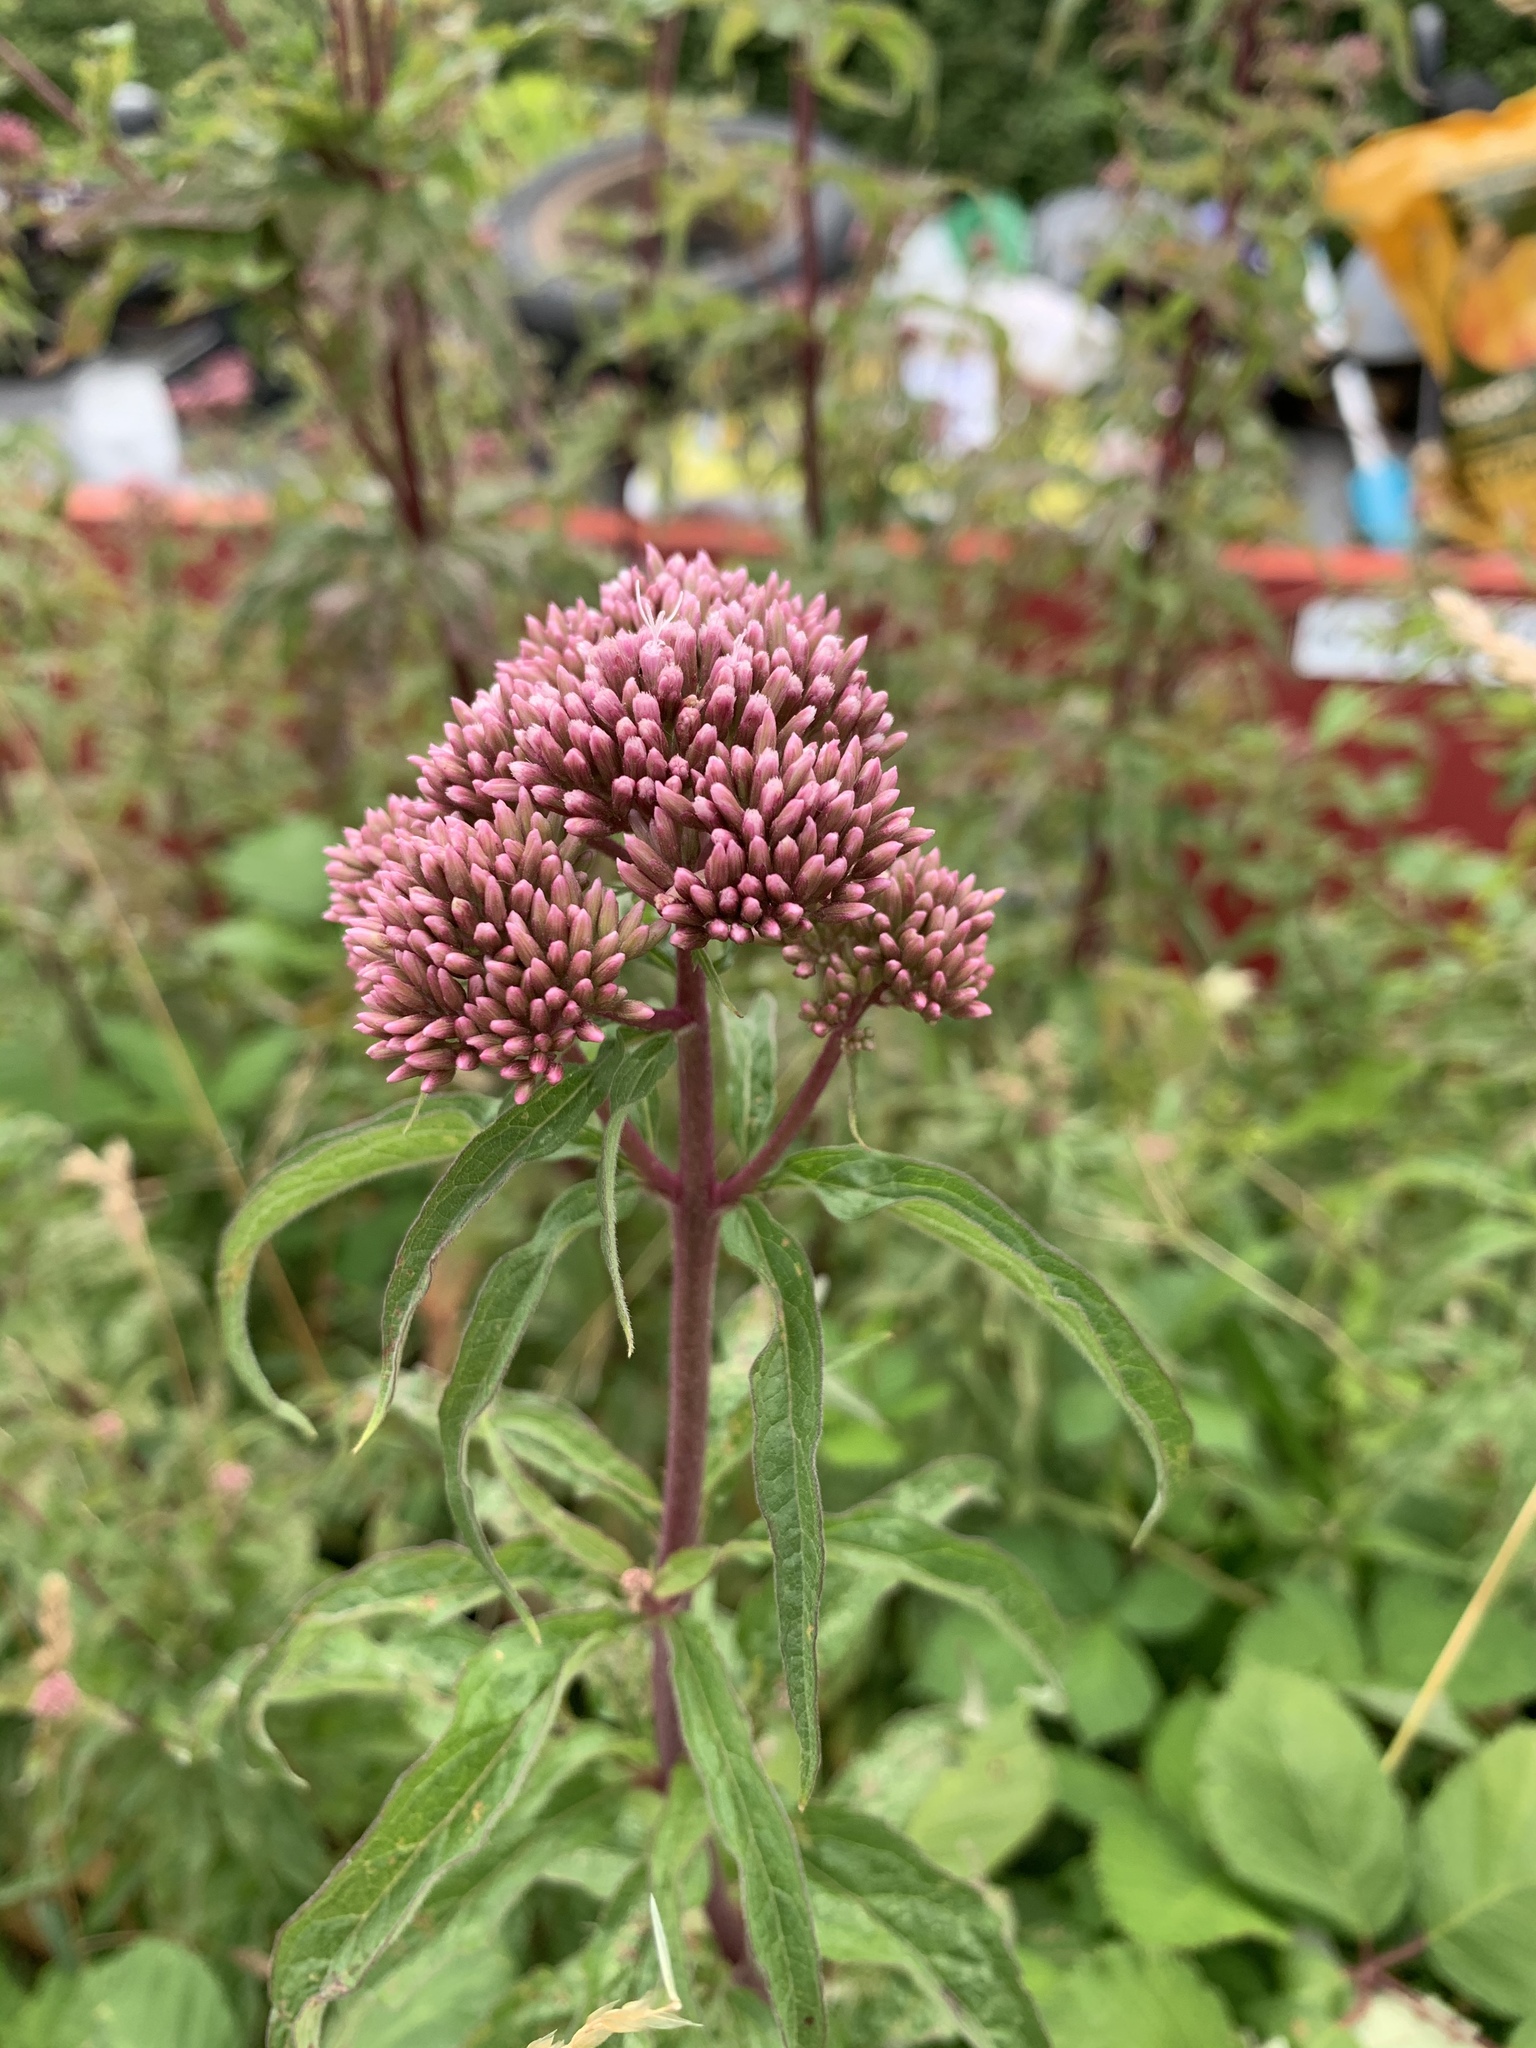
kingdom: Plantae
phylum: Tracheophyta
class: Magnoliopsida
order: Asterales
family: Asteraceae
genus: Eupatorium
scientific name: Eupatorium cannabinum
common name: Hemp-agrimony
